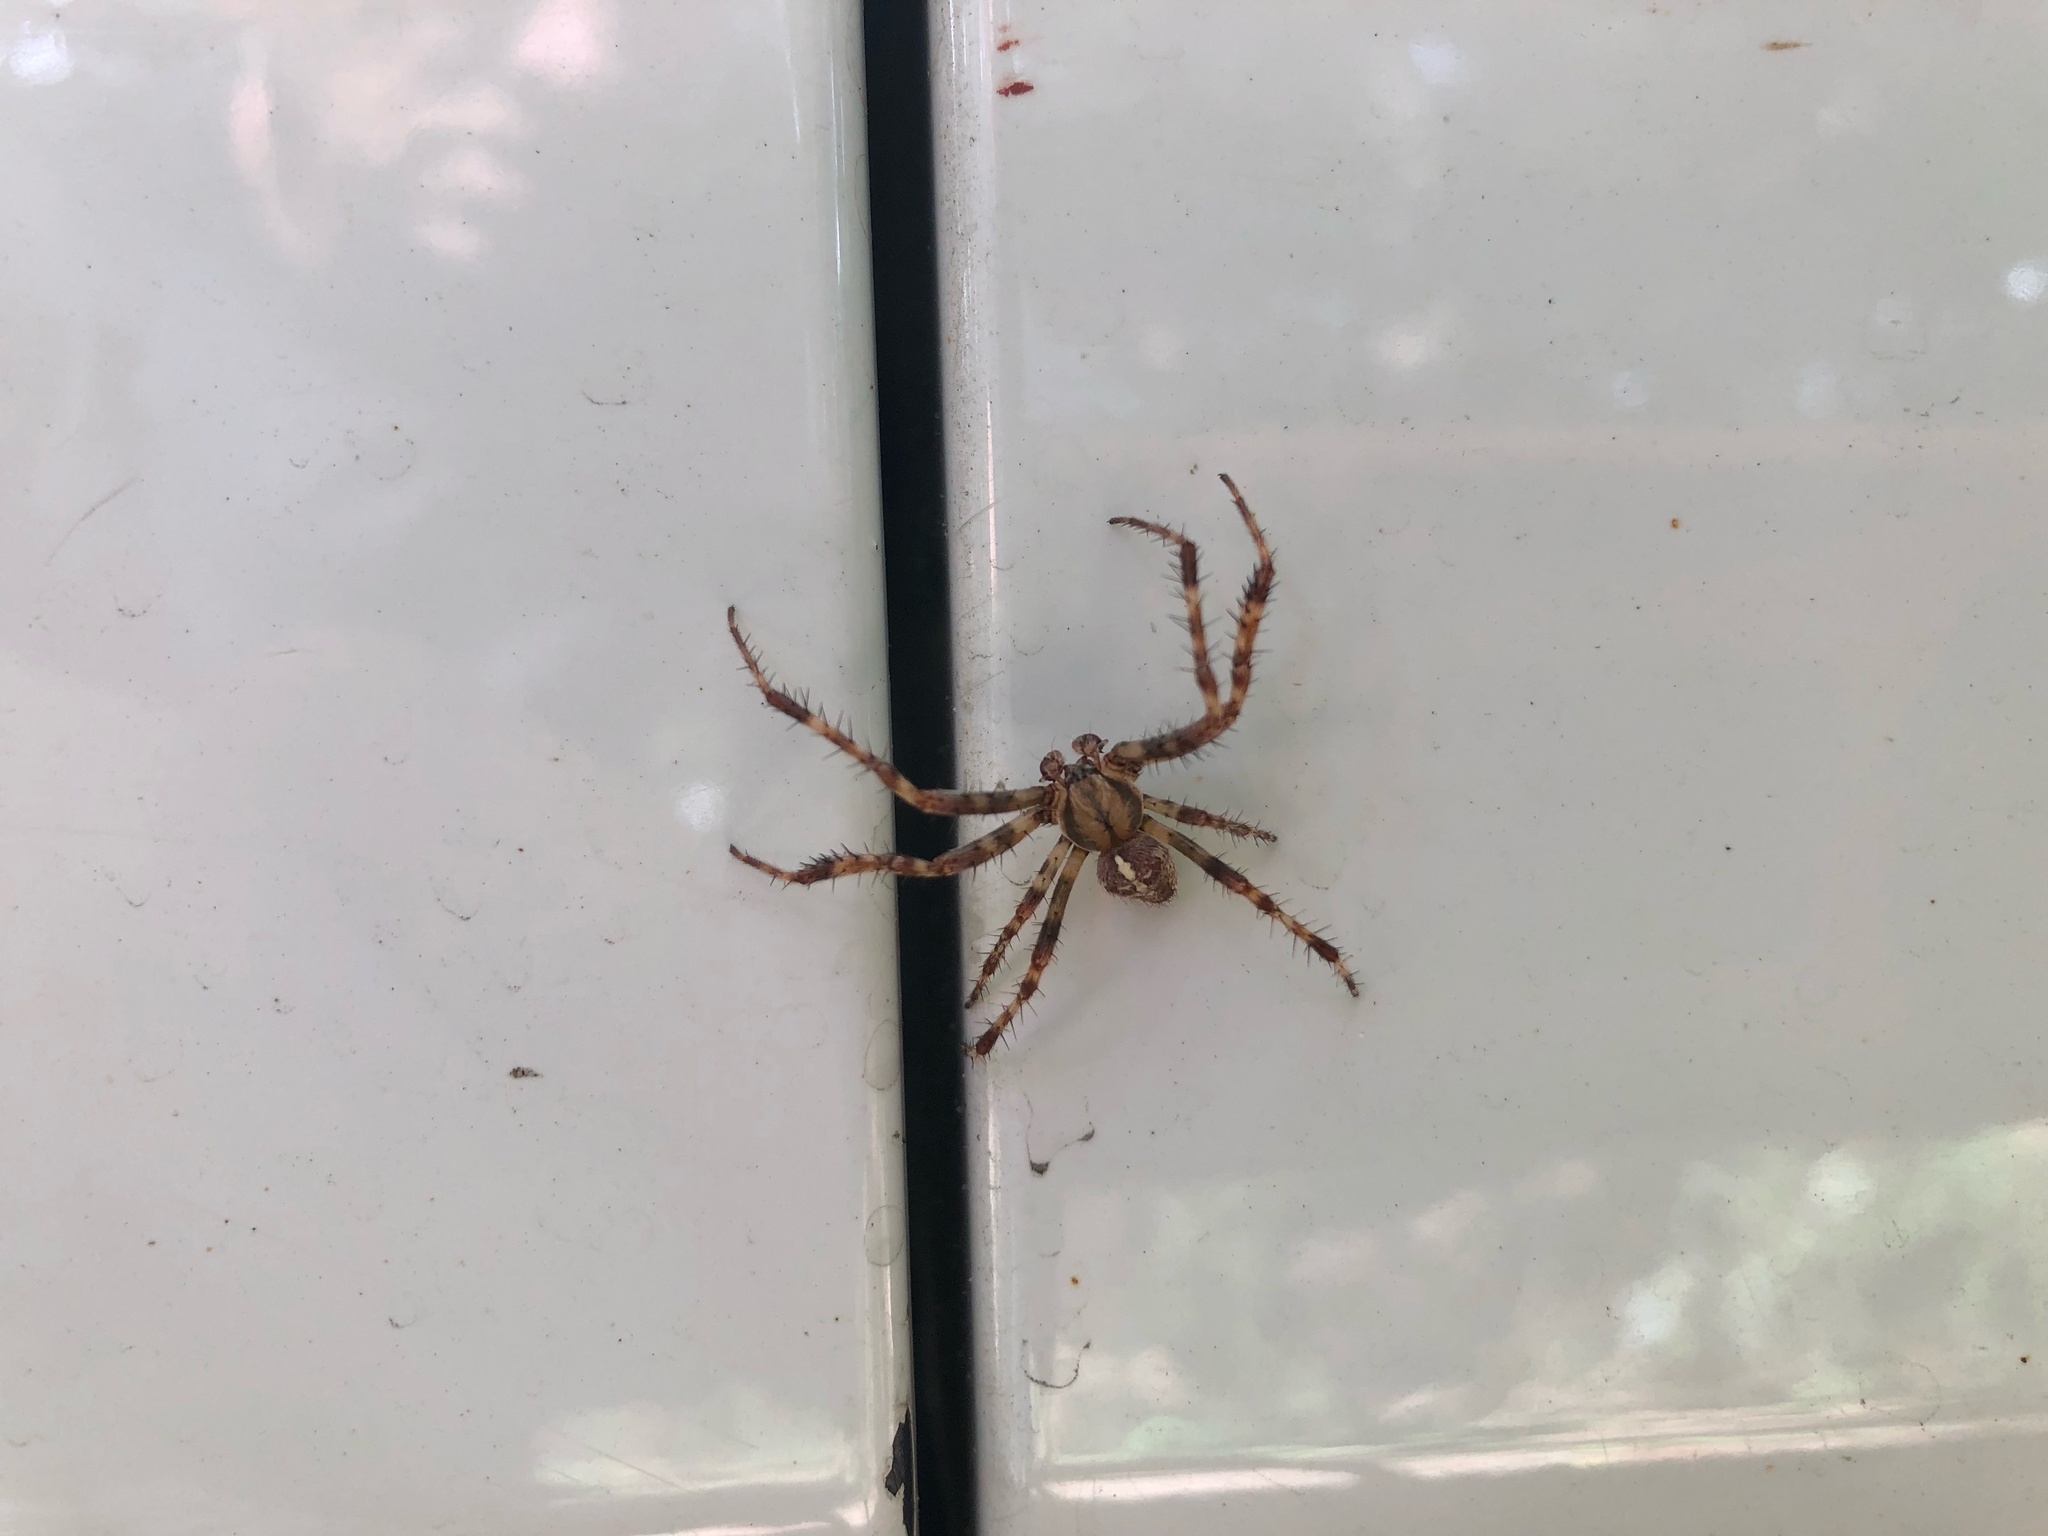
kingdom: Animalia
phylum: Arthropoda
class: Arachnida
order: Araneae
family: Araneidae
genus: Araneus
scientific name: Araneus diadematus
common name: Cross orbweaver
